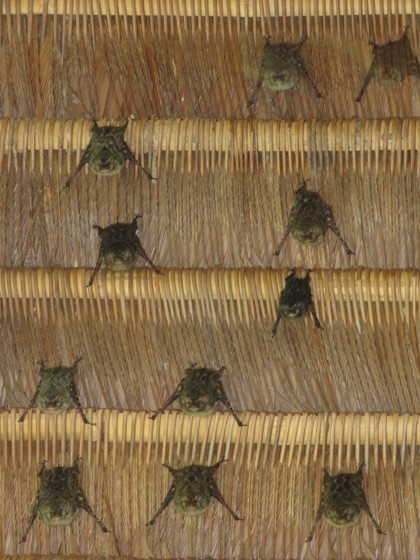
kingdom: Animalia
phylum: Chordata
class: Mammalia
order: Chiroptera
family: Emballonuridae
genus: Rhynchonycteris
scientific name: Rhynchonycteris naso
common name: Proboscis bat
